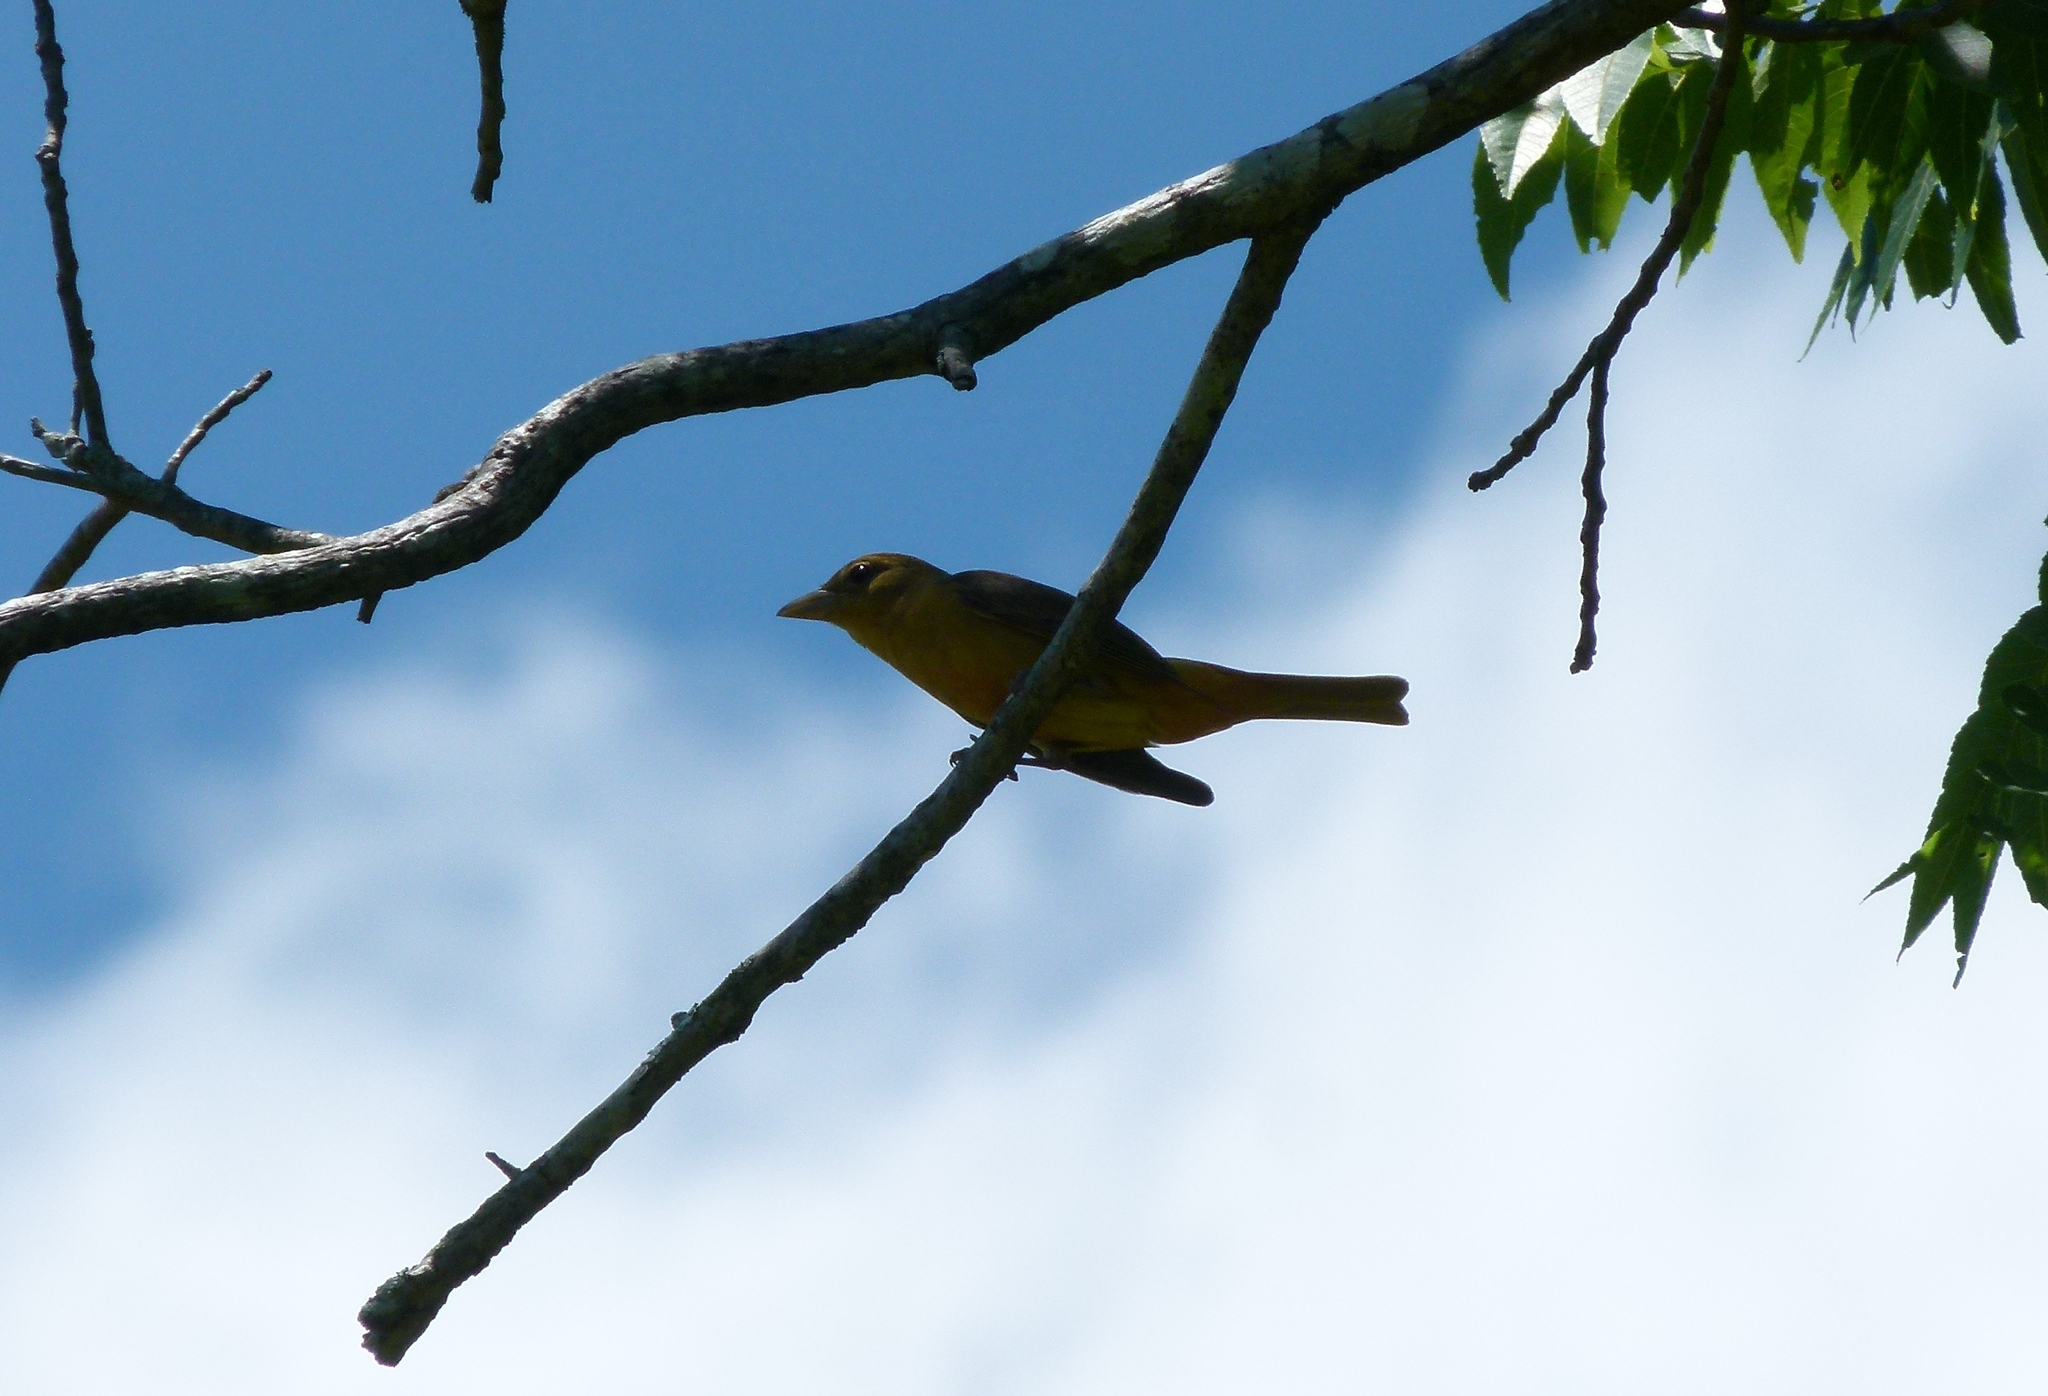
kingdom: Animalia
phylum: Chordata
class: Aves
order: Passeriformes
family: Cardinalidae
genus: Piranga
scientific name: Piranga rubra
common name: Summer tanager
